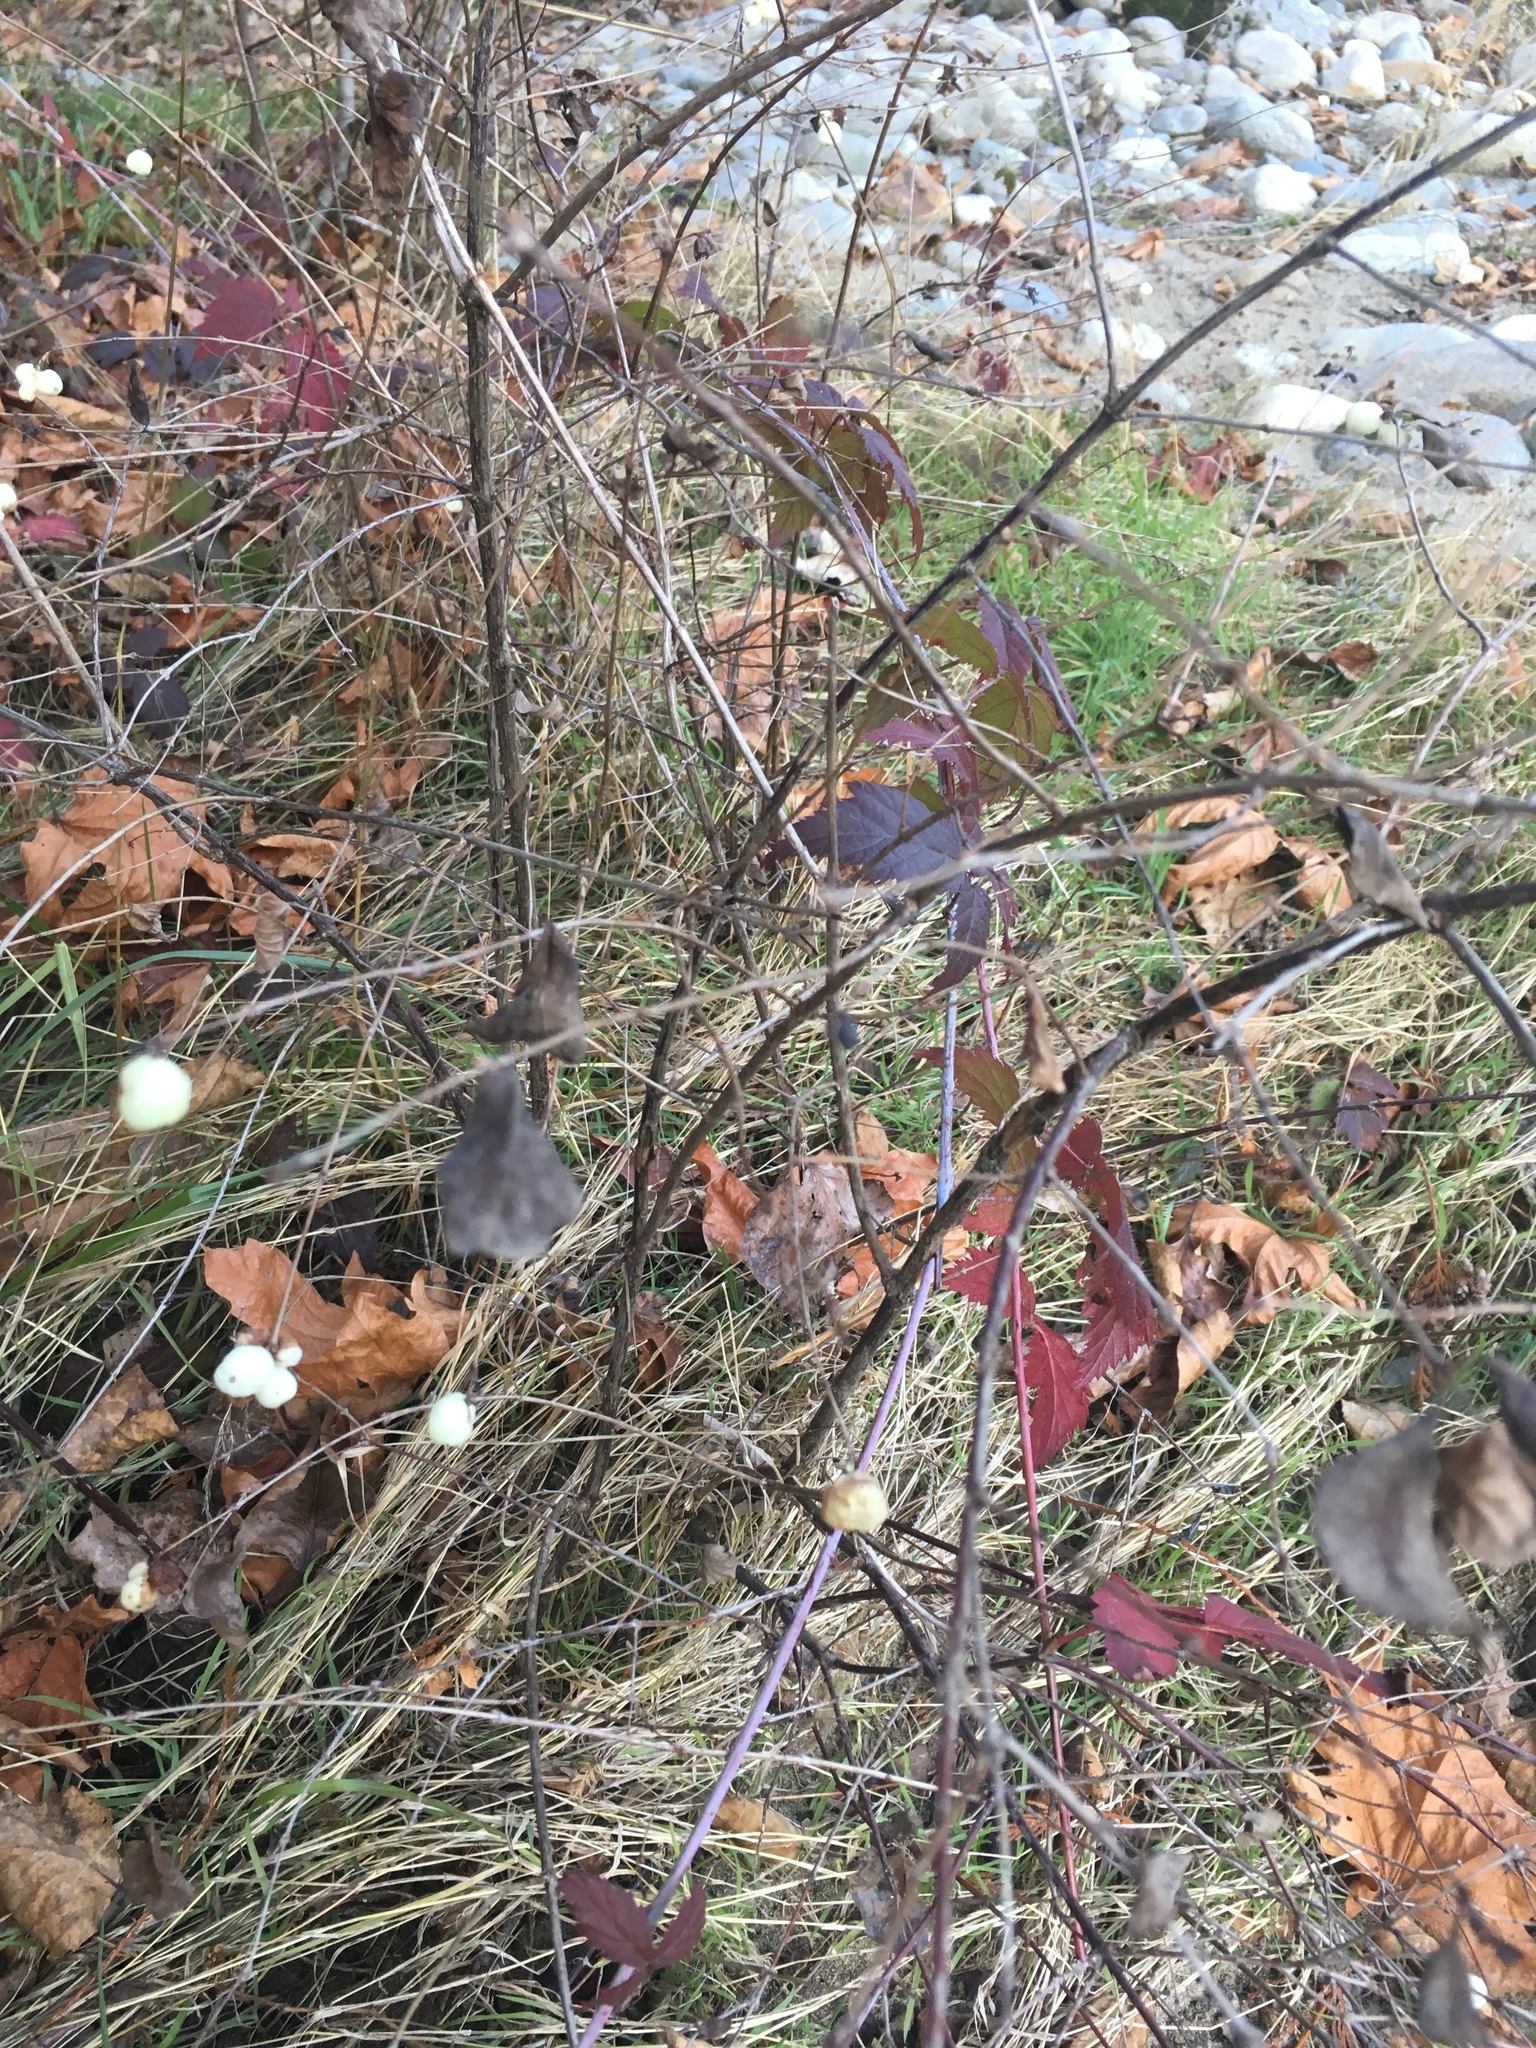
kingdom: Plantae
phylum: Tracheophyta
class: Magnoliopsida
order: Dipsacales
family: Caprifoliaceae
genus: Symphoricarpos
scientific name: Symphoricarpos albus
